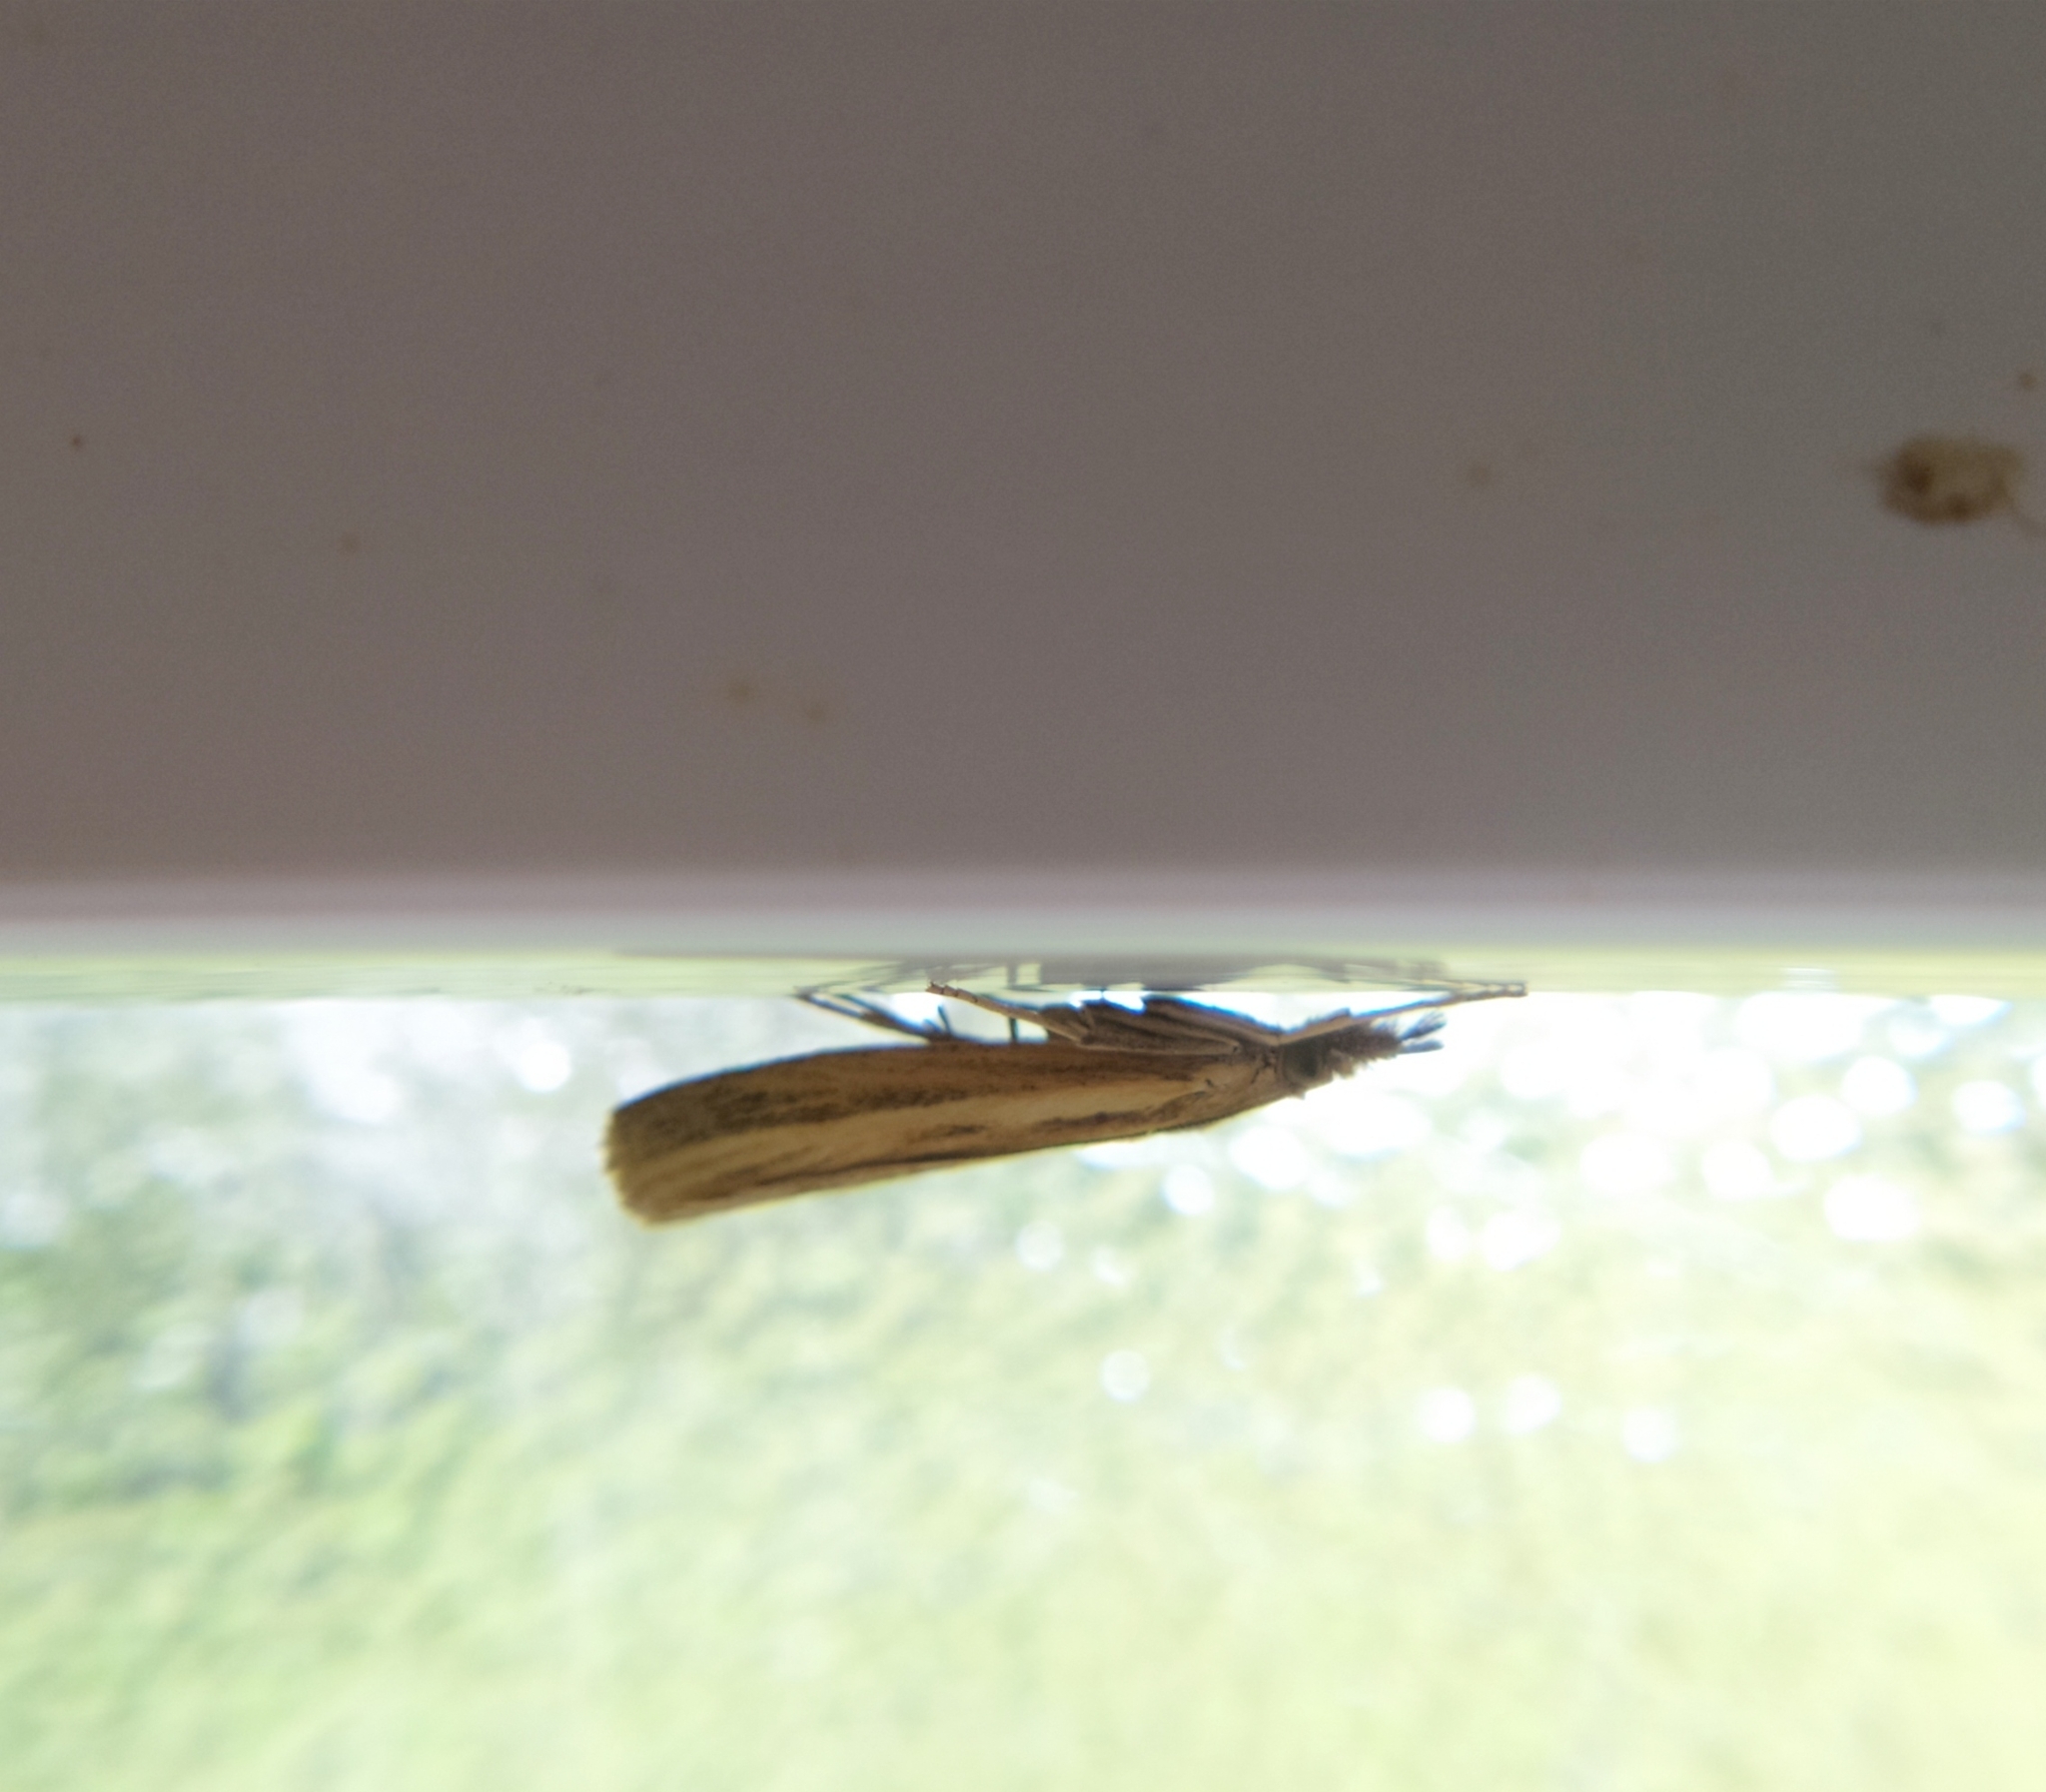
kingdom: Animalia
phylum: Arthropoda
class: Insecta
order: Lepidoptera
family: Crambidae
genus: Agriphila
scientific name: Agriphila tristellus
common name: Common grass-veneer
